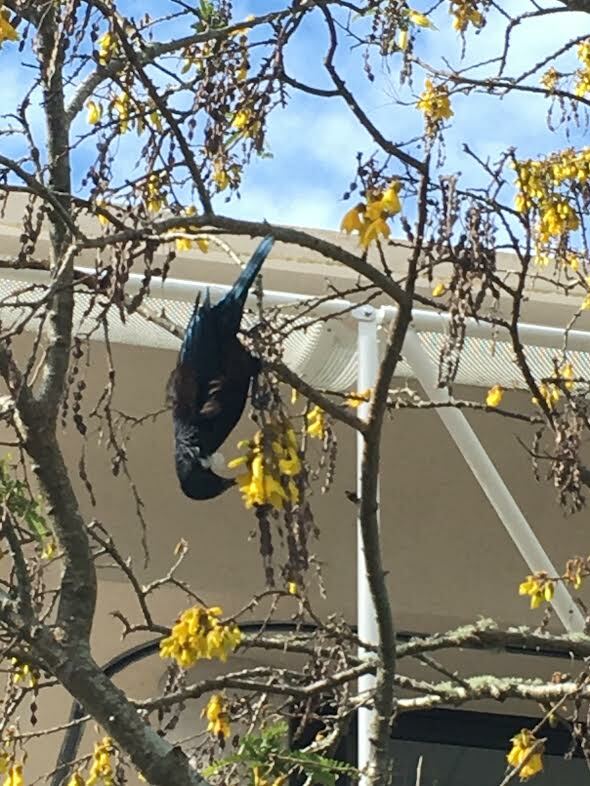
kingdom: Animalia
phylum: Chordata
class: Aves
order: Passeriformes
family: Meliphagidae
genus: Prosthemadera
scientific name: Prosthemadera novaeseelandiae
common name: Tui
